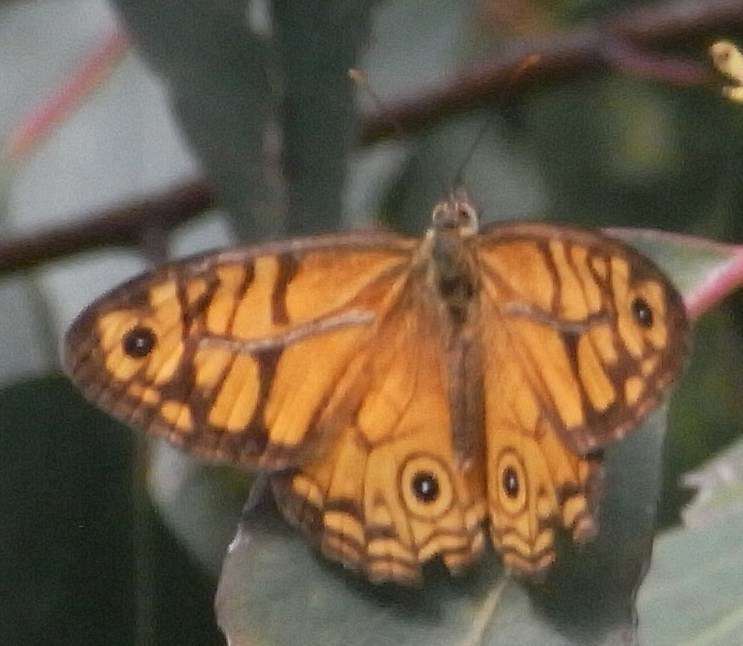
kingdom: Animalia
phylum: Arthropoda
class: Insecta
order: Lepidoptera
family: Nymphalidae
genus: Geitoneura
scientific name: Geitoneura acantha
